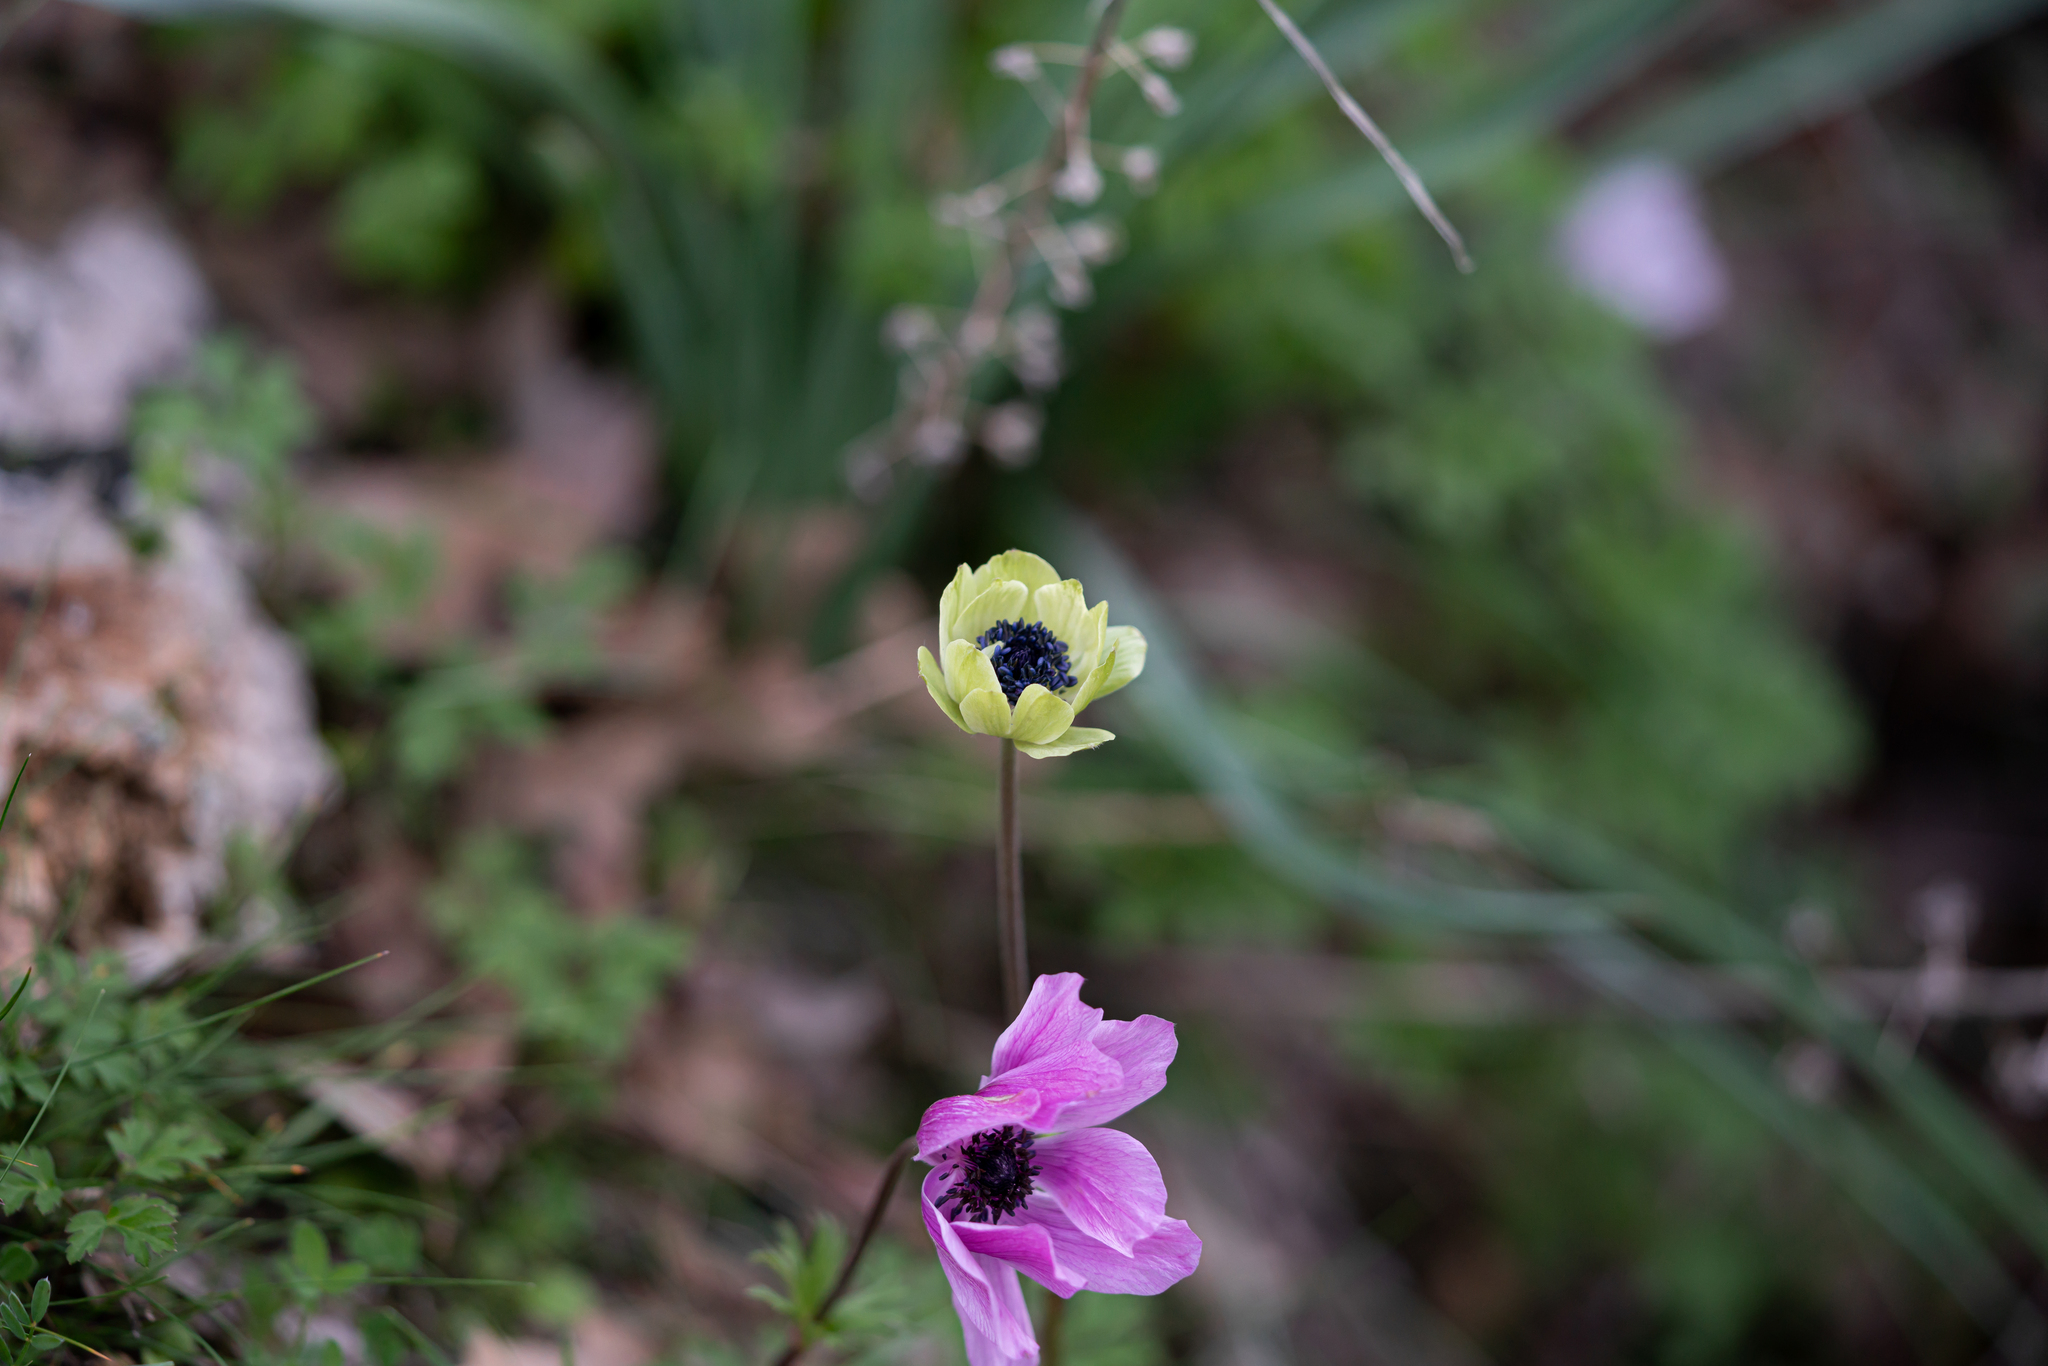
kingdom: Plantae
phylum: Tracheophyta
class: Magnoliopsida
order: Ranunculales
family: Ranunculaceae
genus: Anemone
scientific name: Anemone coronaria
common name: Poppy anemone
